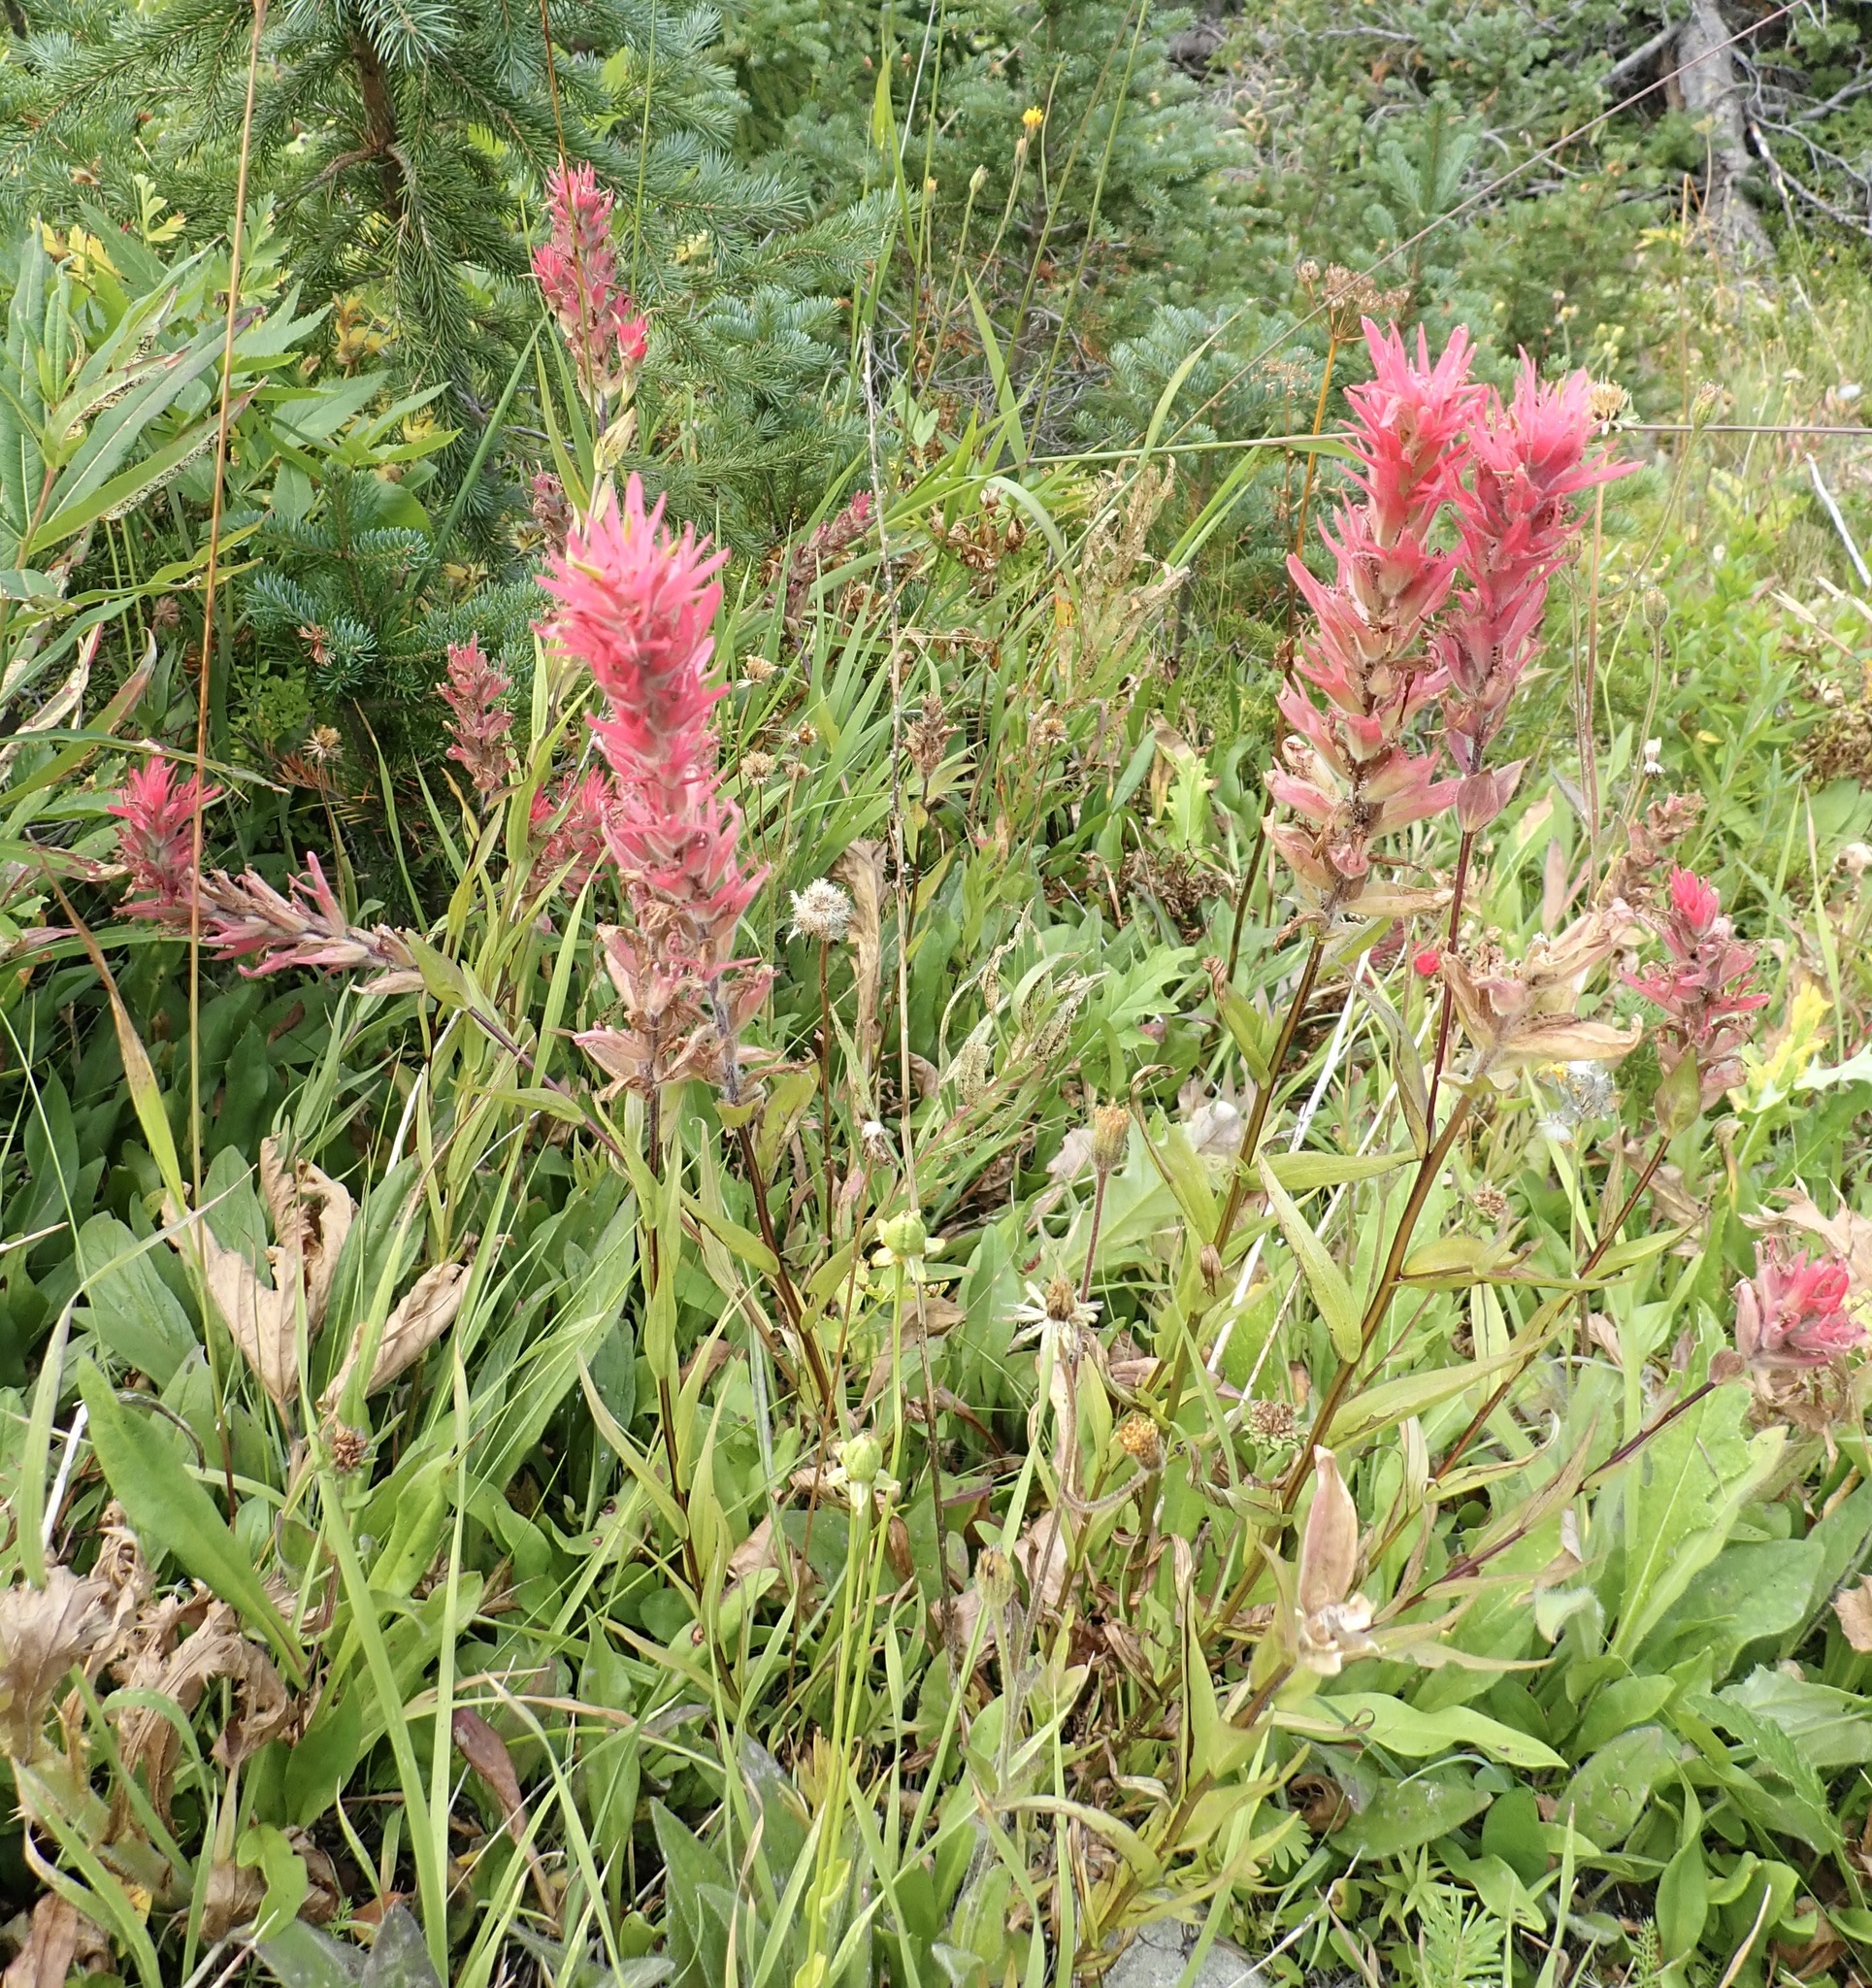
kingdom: Plantae
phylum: Tracheophyta
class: Magnoliopsida
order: Lamiales
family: Orobanchaceae
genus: Castilleja
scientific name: Castilleja miniata
